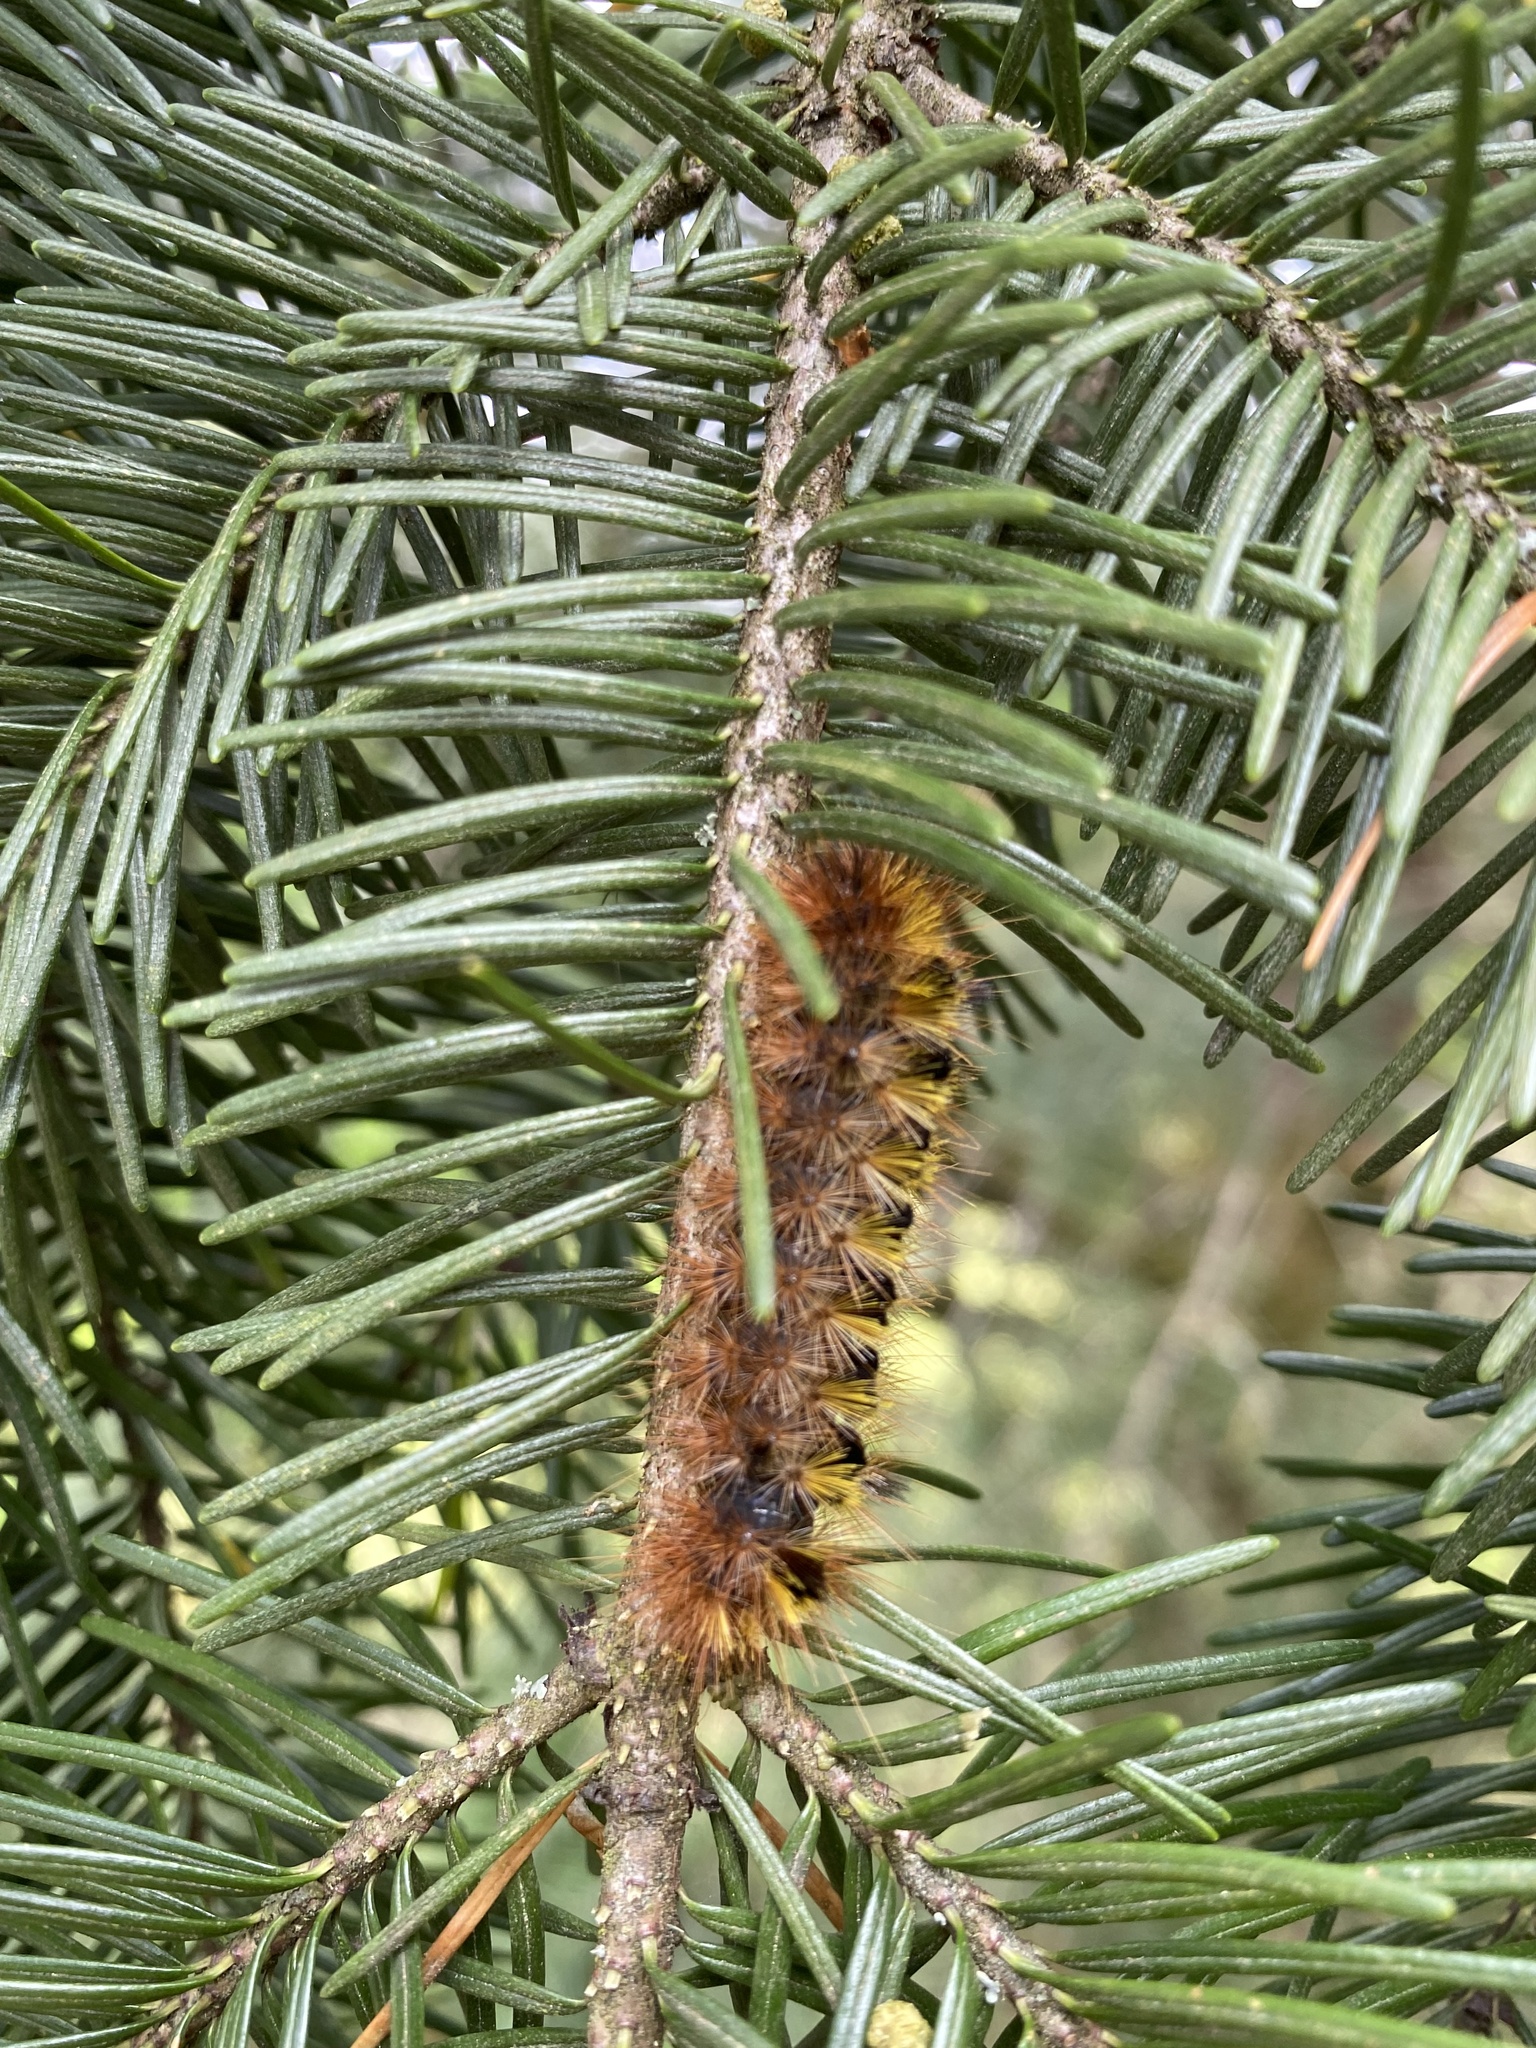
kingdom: Animalia
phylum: Arthropoda
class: Insecta
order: Lepidoptera
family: Erebidae
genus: Lophocampa
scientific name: Lophocampa argentata
